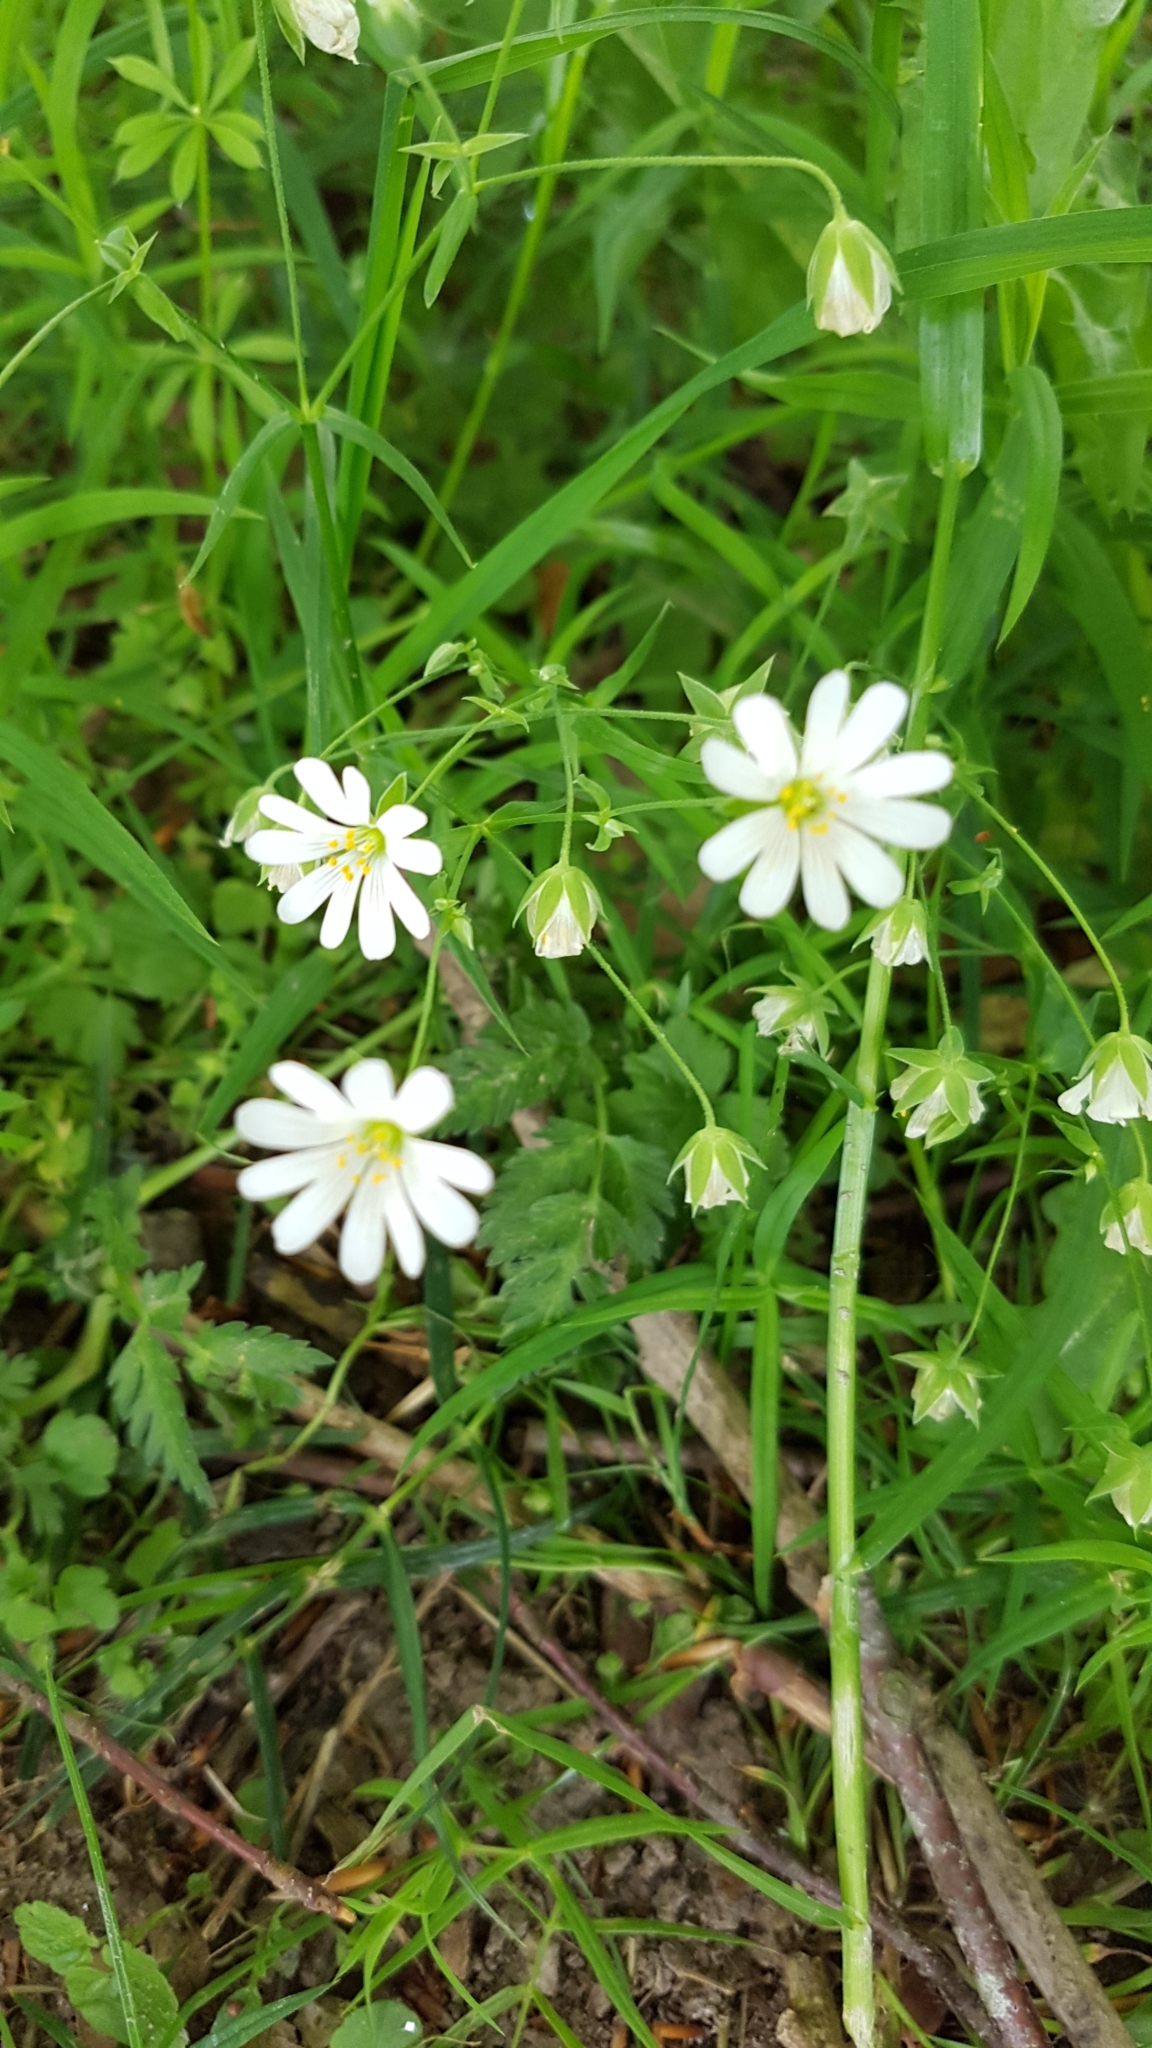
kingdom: Plantae
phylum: Tracheophyta
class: Magnoliopsida
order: Caryophyllales
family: Caryophyllaceae
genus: Rabelera
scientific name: Rabelera holostea
